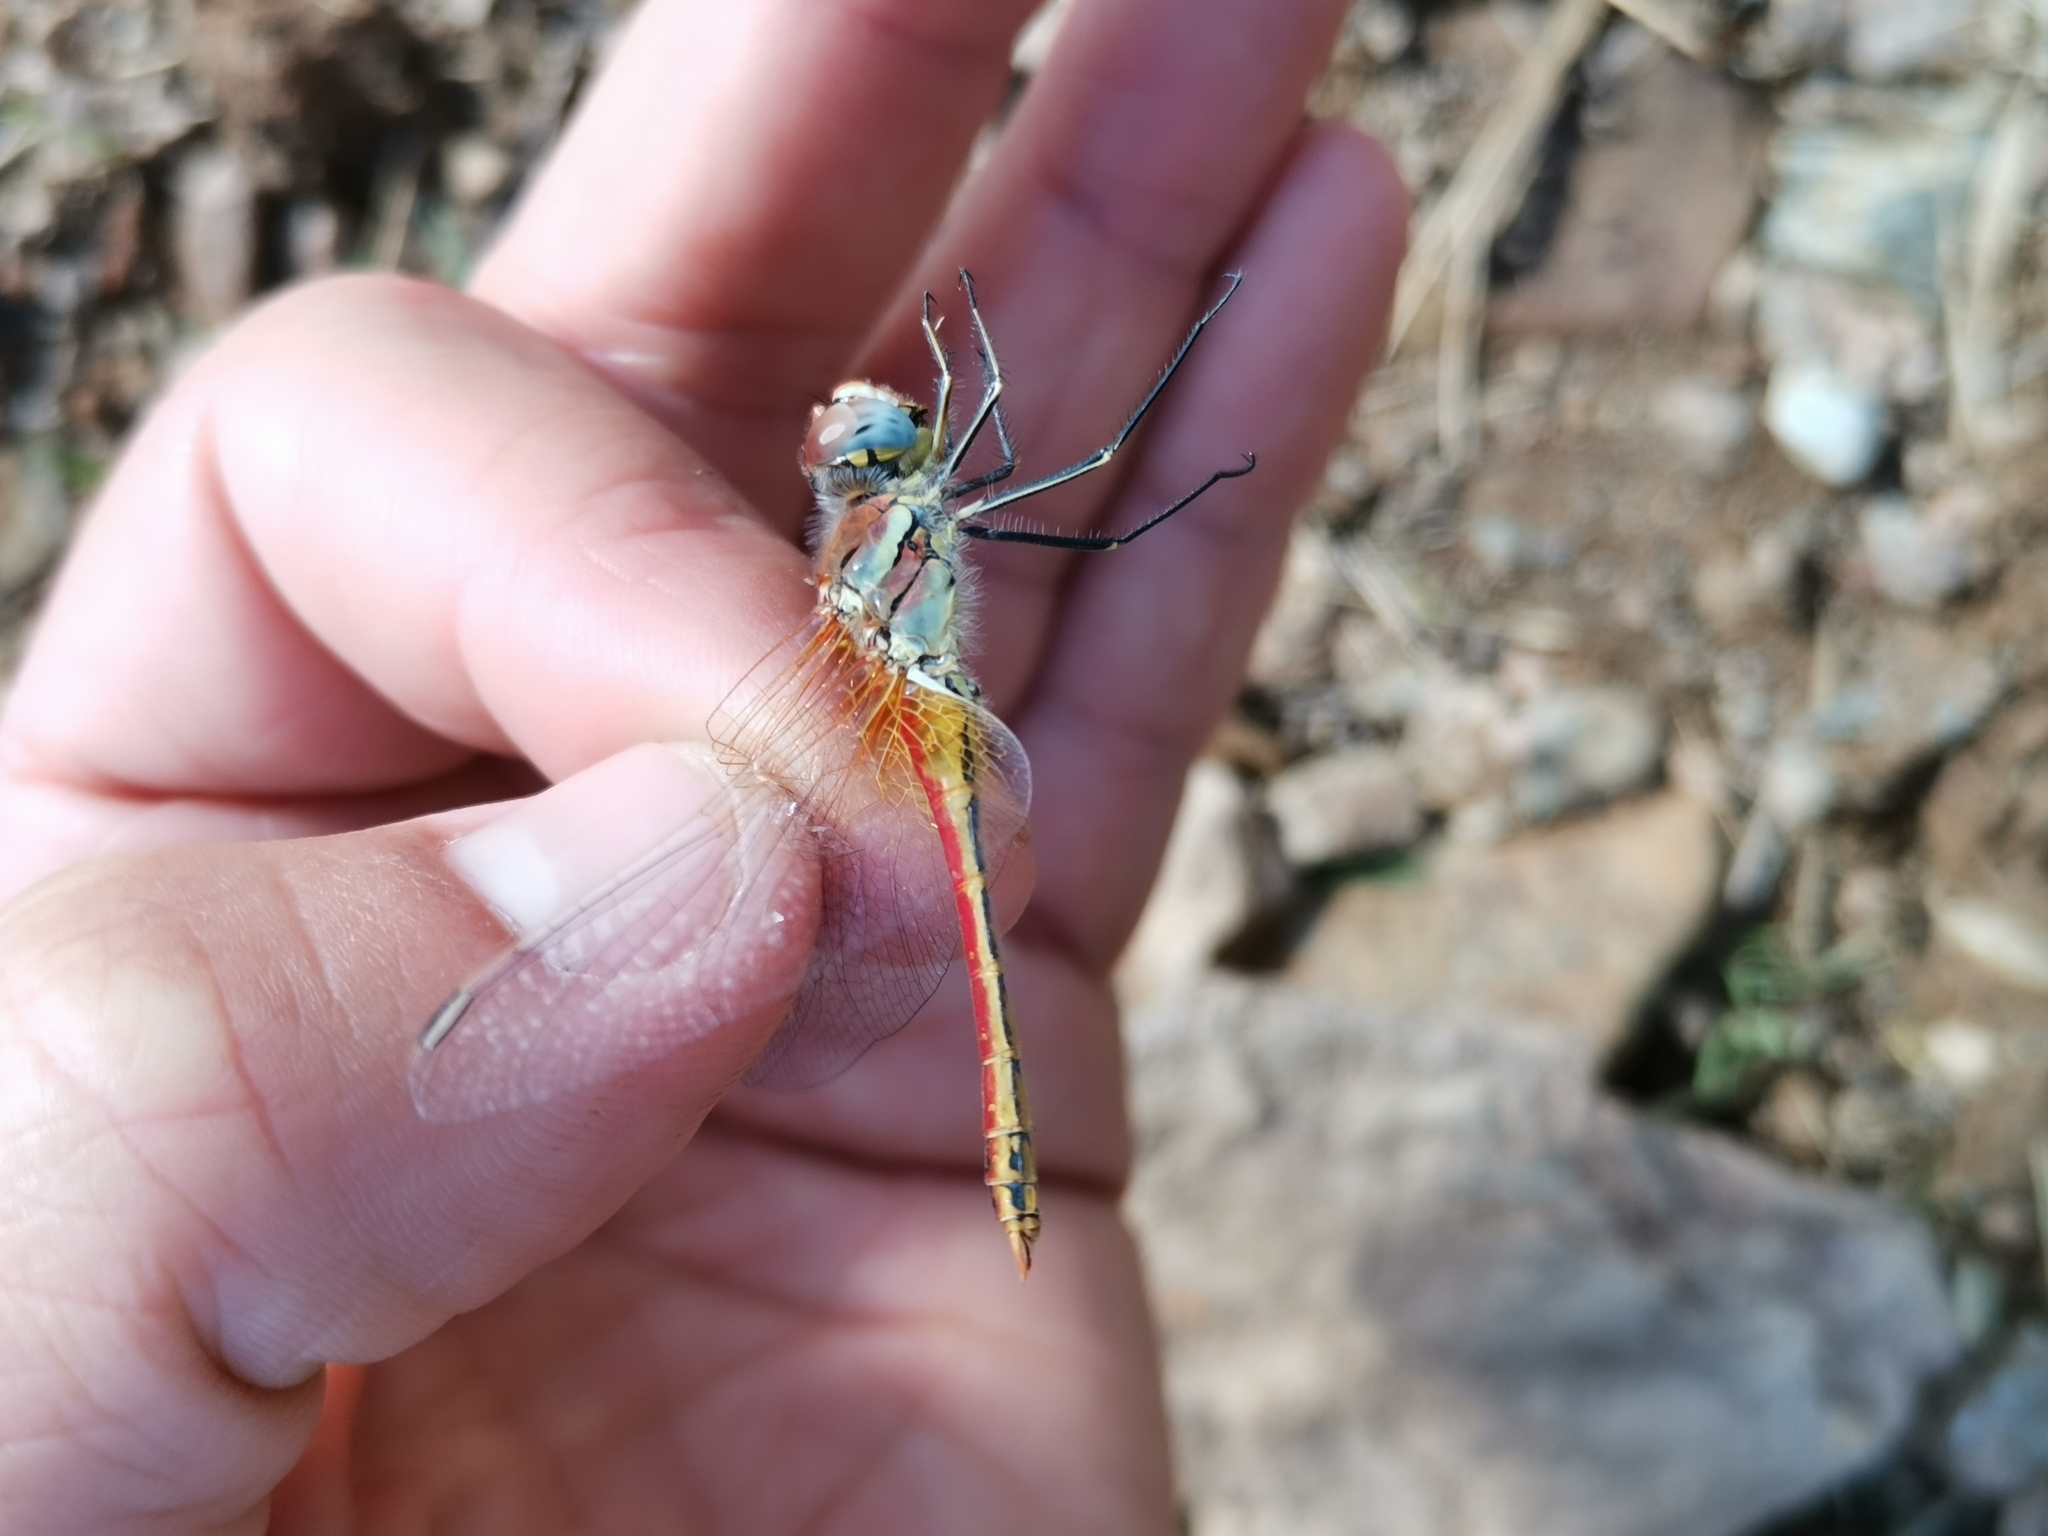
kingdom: Animalia
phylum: Arthropoda
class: Insecta
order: Odonata
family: Libellulidae
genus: Sympetrum
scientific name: Sympetrum fonscolombii
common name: Red-veined darter
